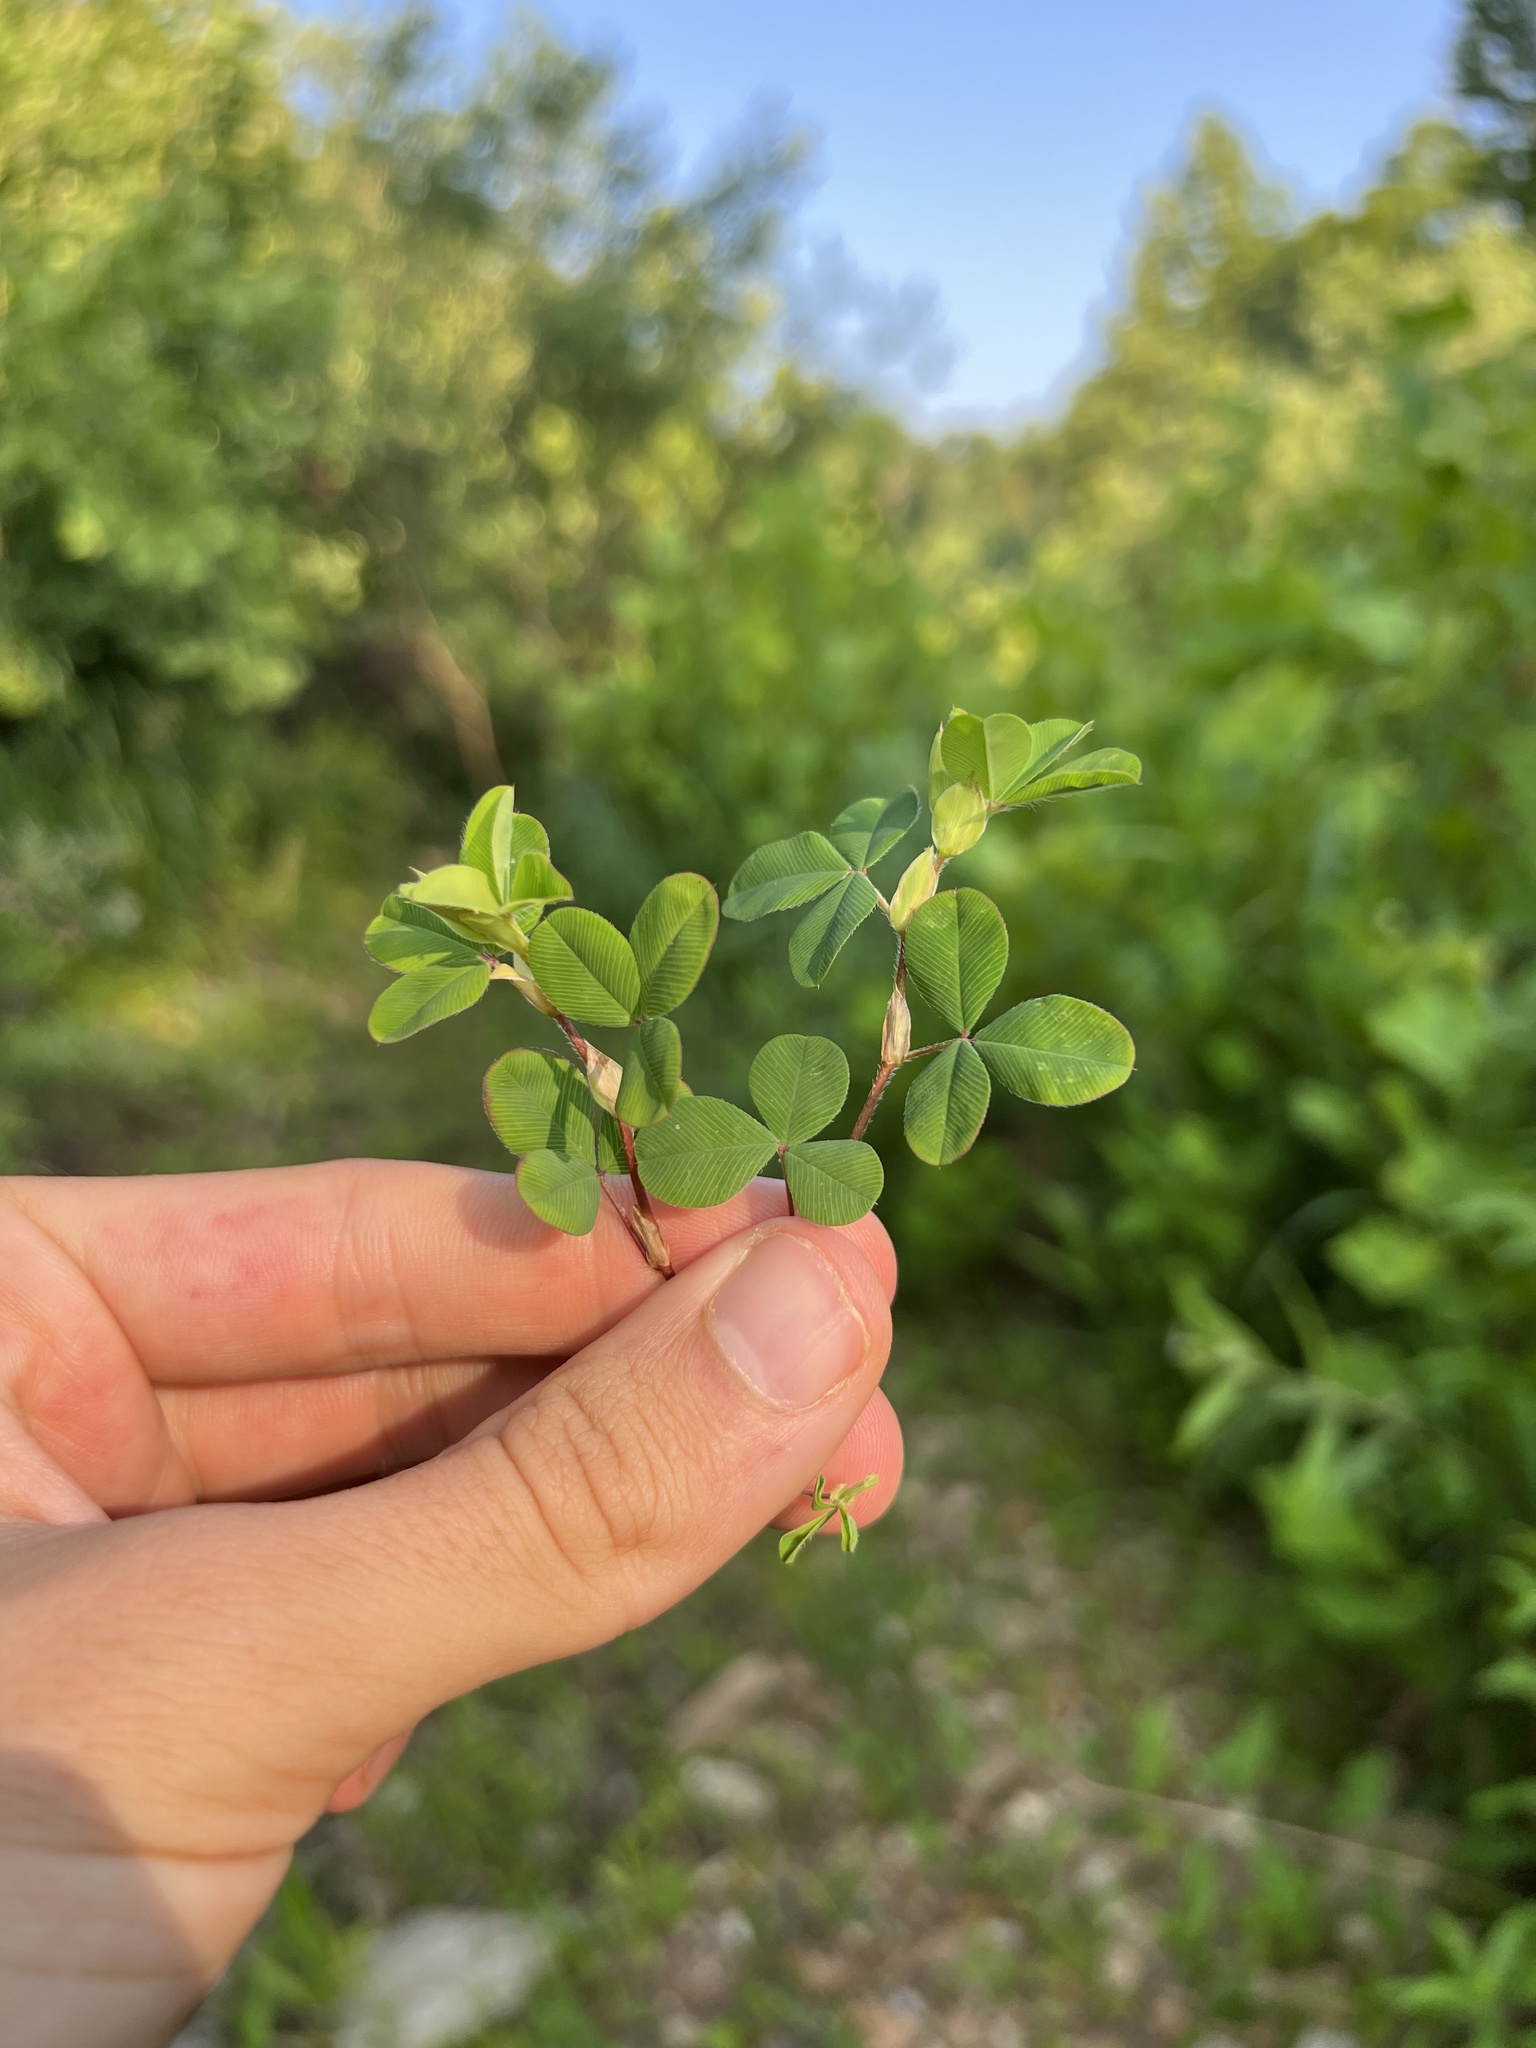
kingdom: Plantae
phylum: Tracheophyta
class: Magnoliopsida
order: Fabales
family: Fabaceae
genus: Kummerowia
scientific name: Kummerowia stipulacea
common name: Korean clover
